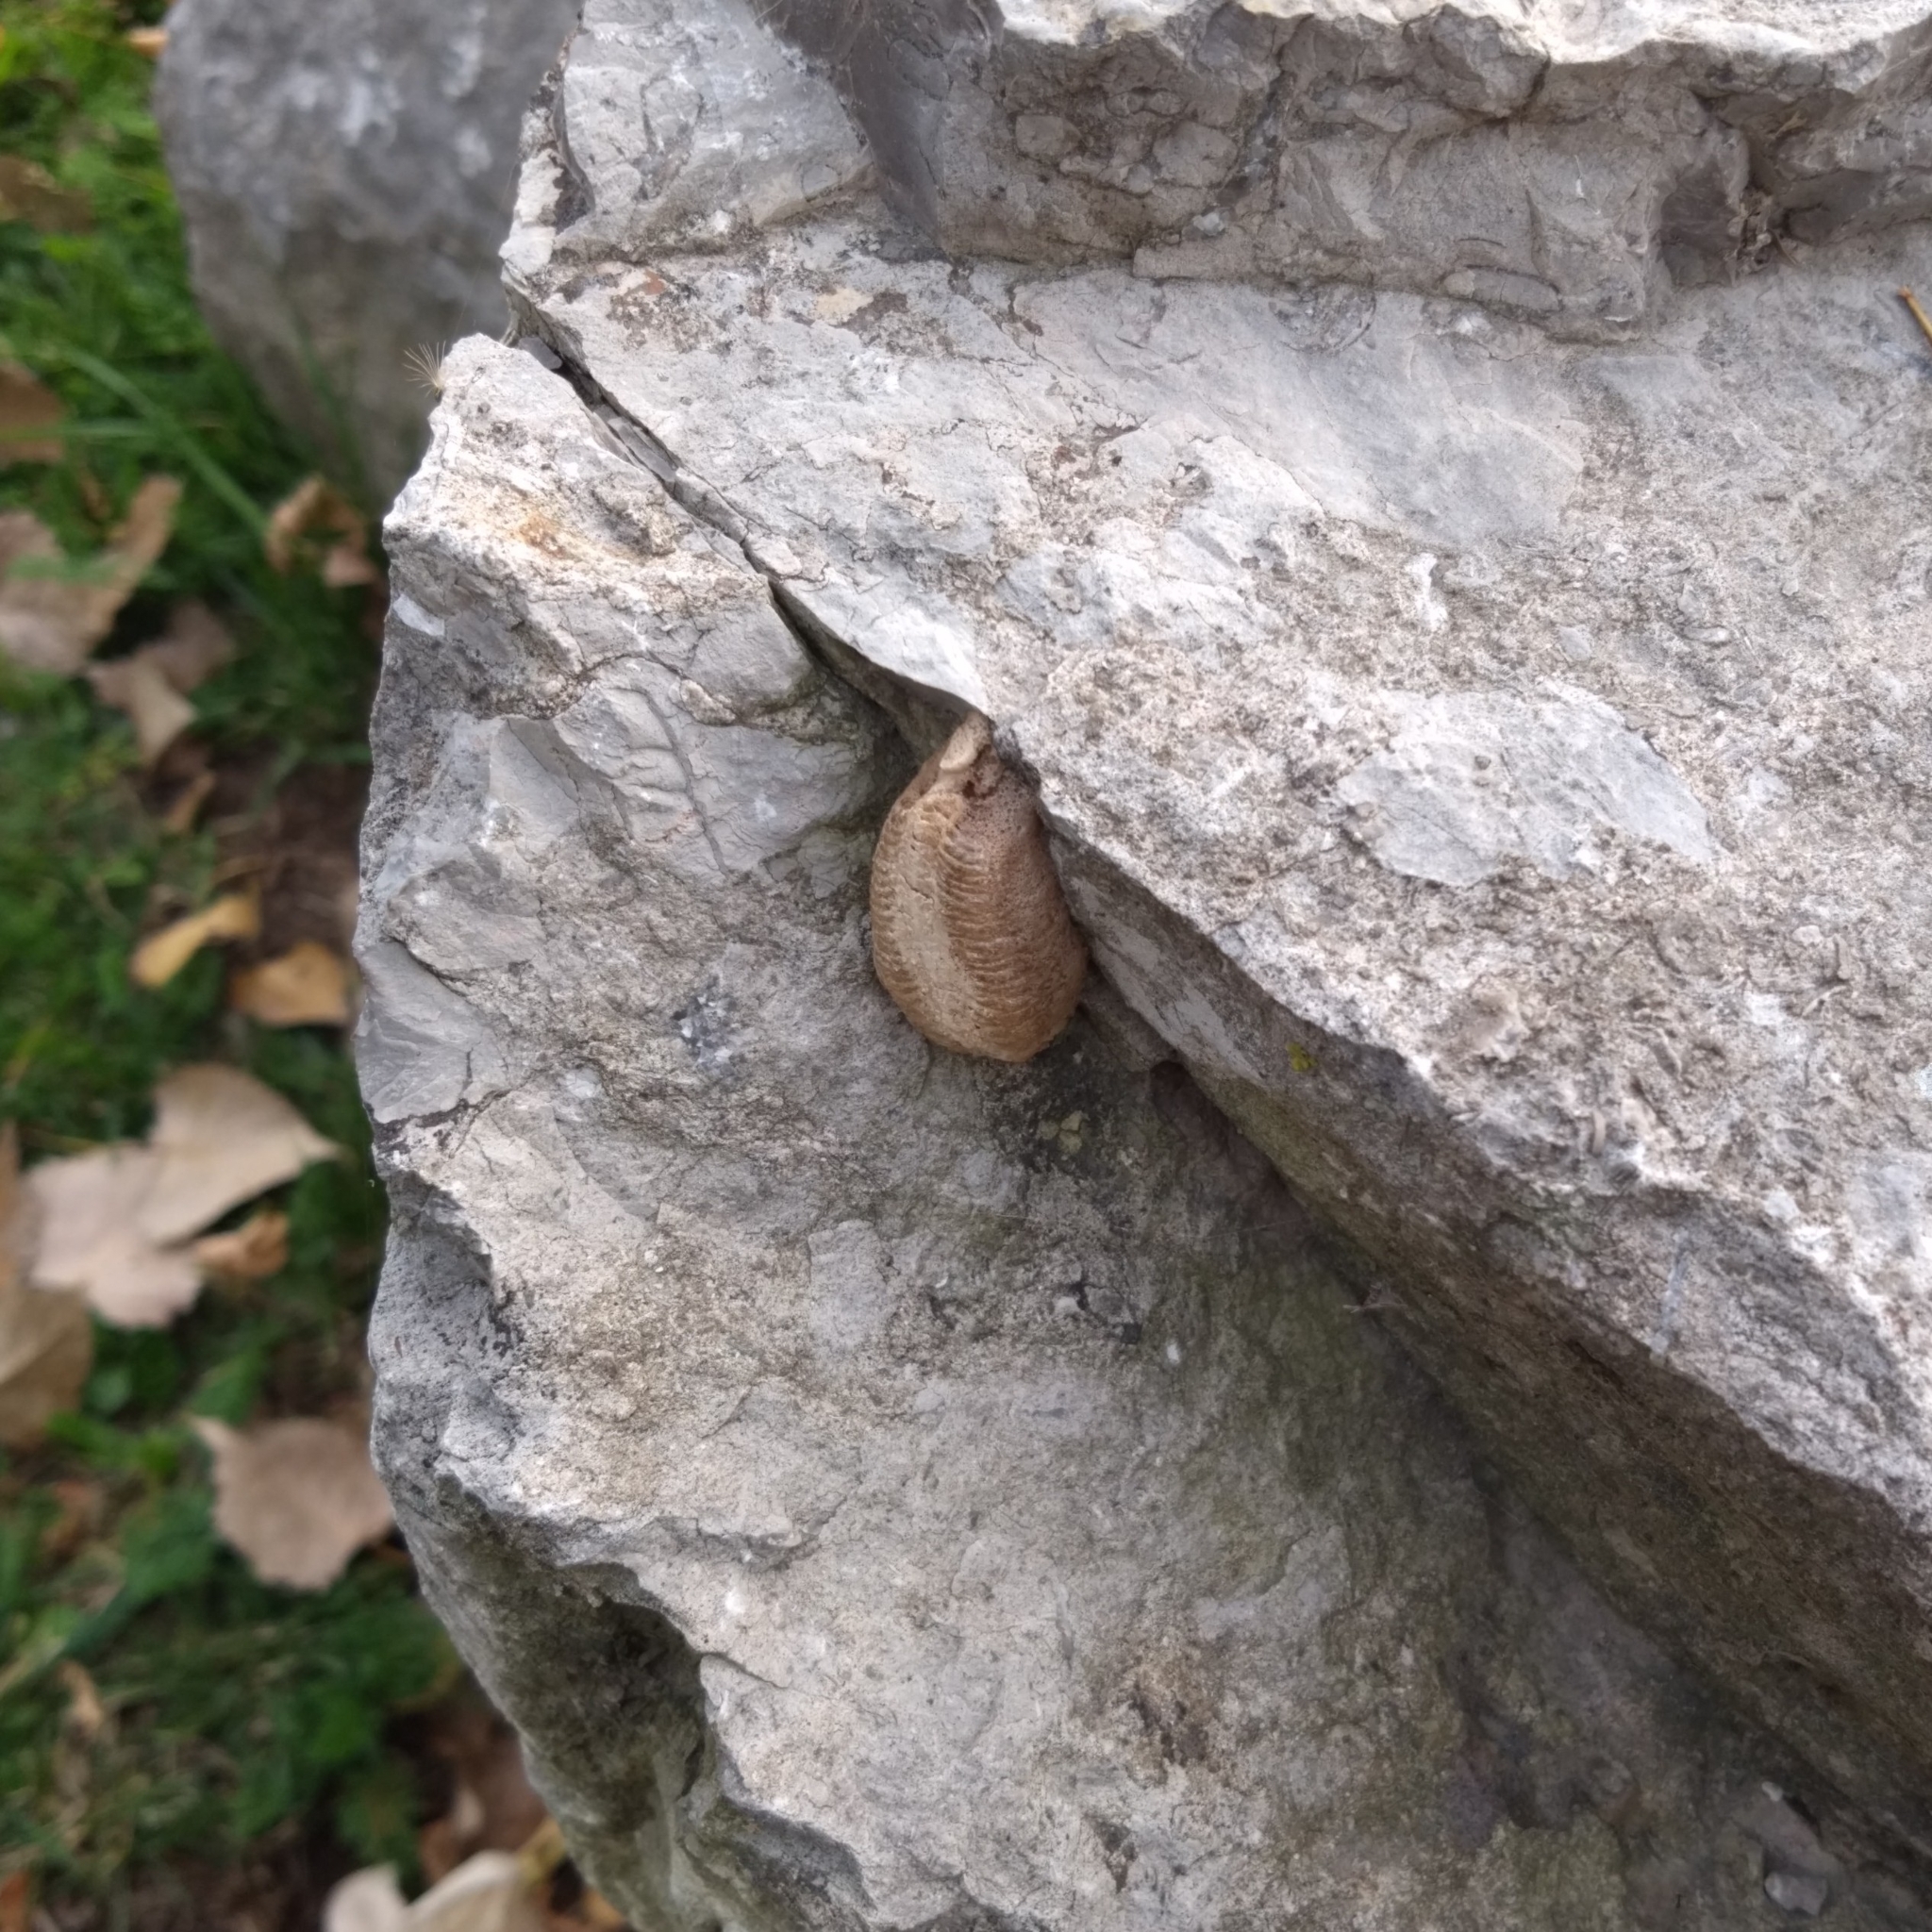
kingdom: Animalia
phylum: Arthropoda
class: Insecta
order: Mantodea
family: Mantidae
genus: Mantis
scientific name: Mantis religiosa
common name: Praying mantis
